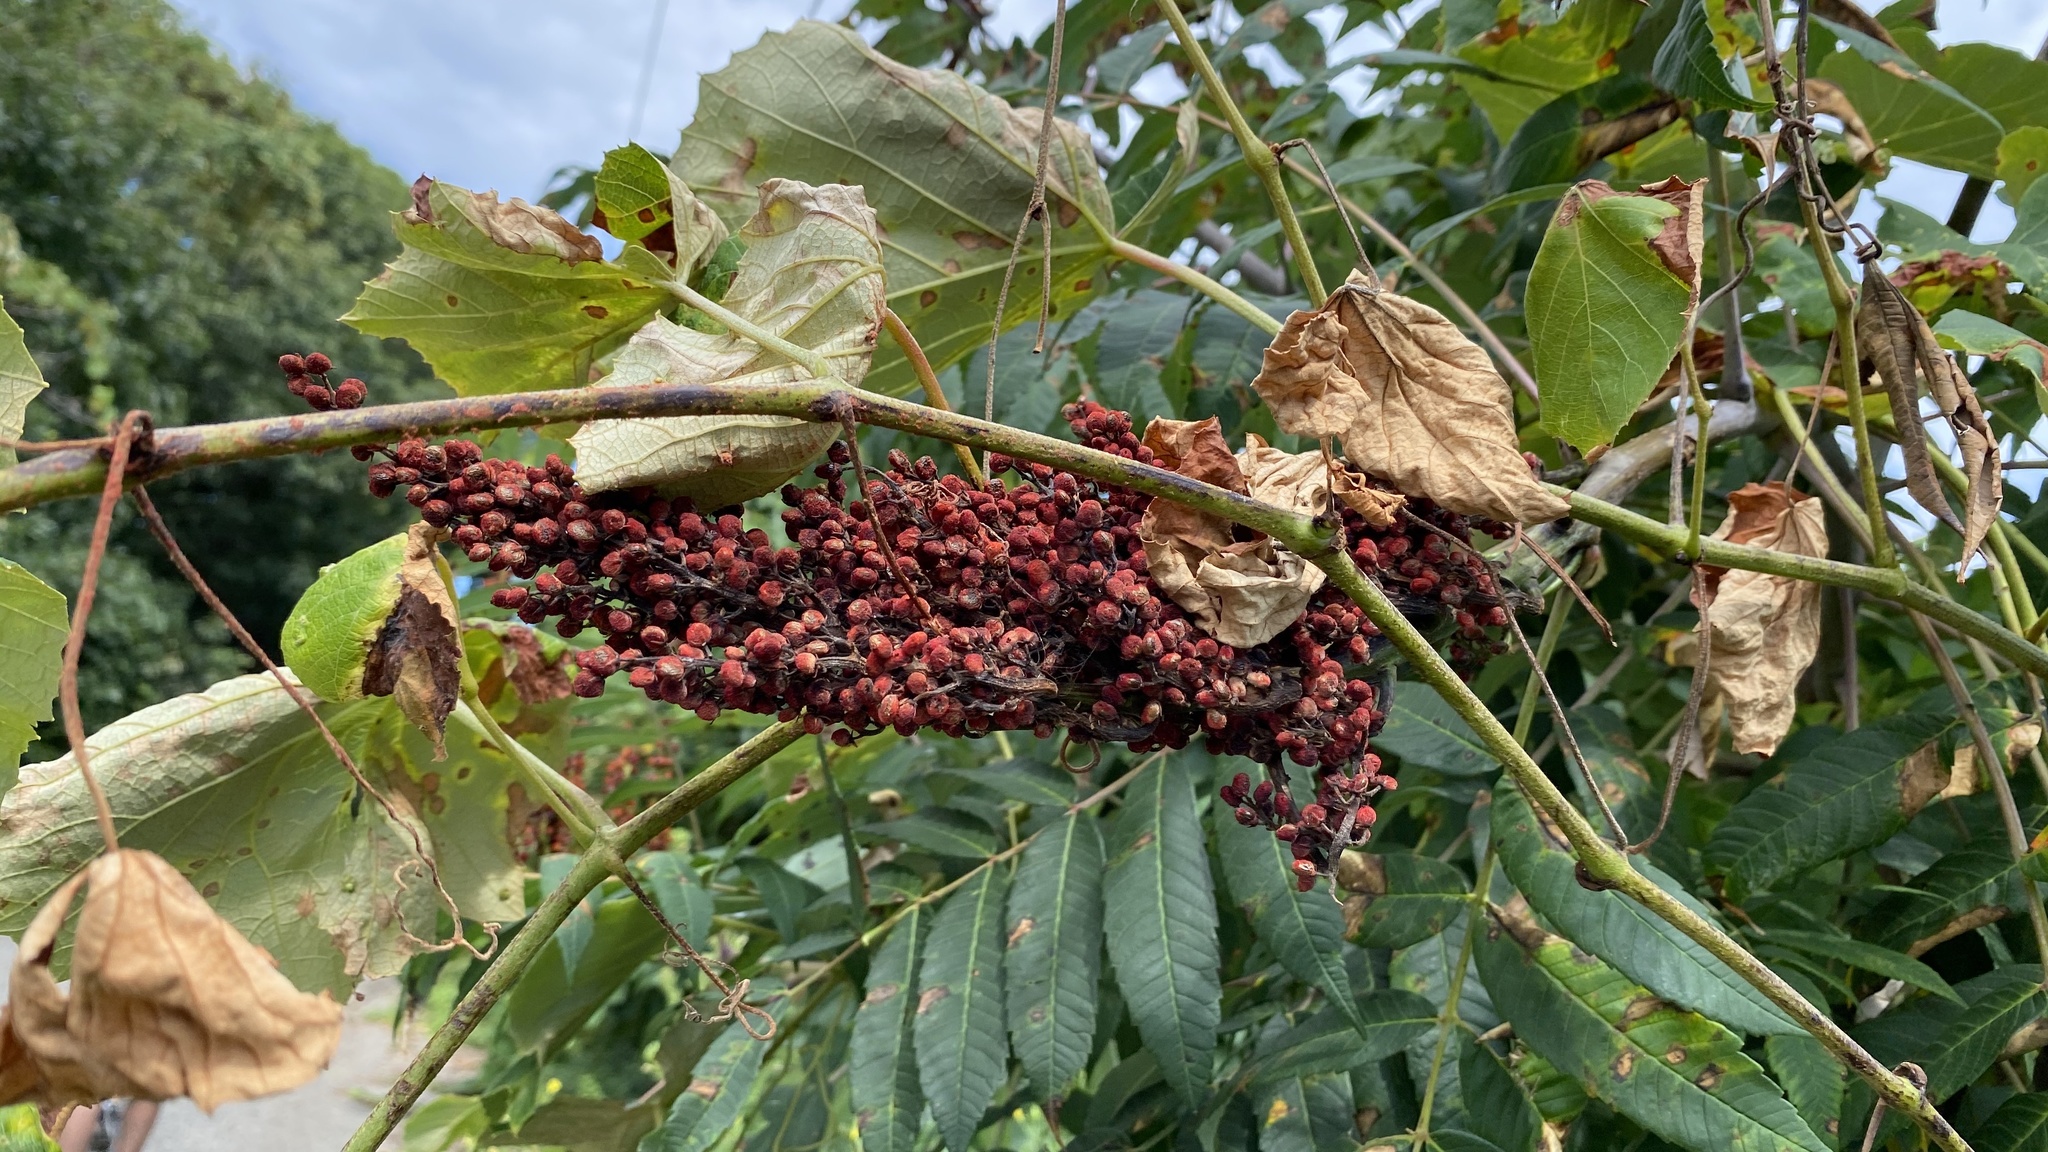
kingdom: Plantae
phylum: Tracheophyta
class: Magnoliopsida
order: Sapindales
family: Anacardiaceae
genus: Rhus
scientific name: Rhus glabra
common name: Scarlet sumac
